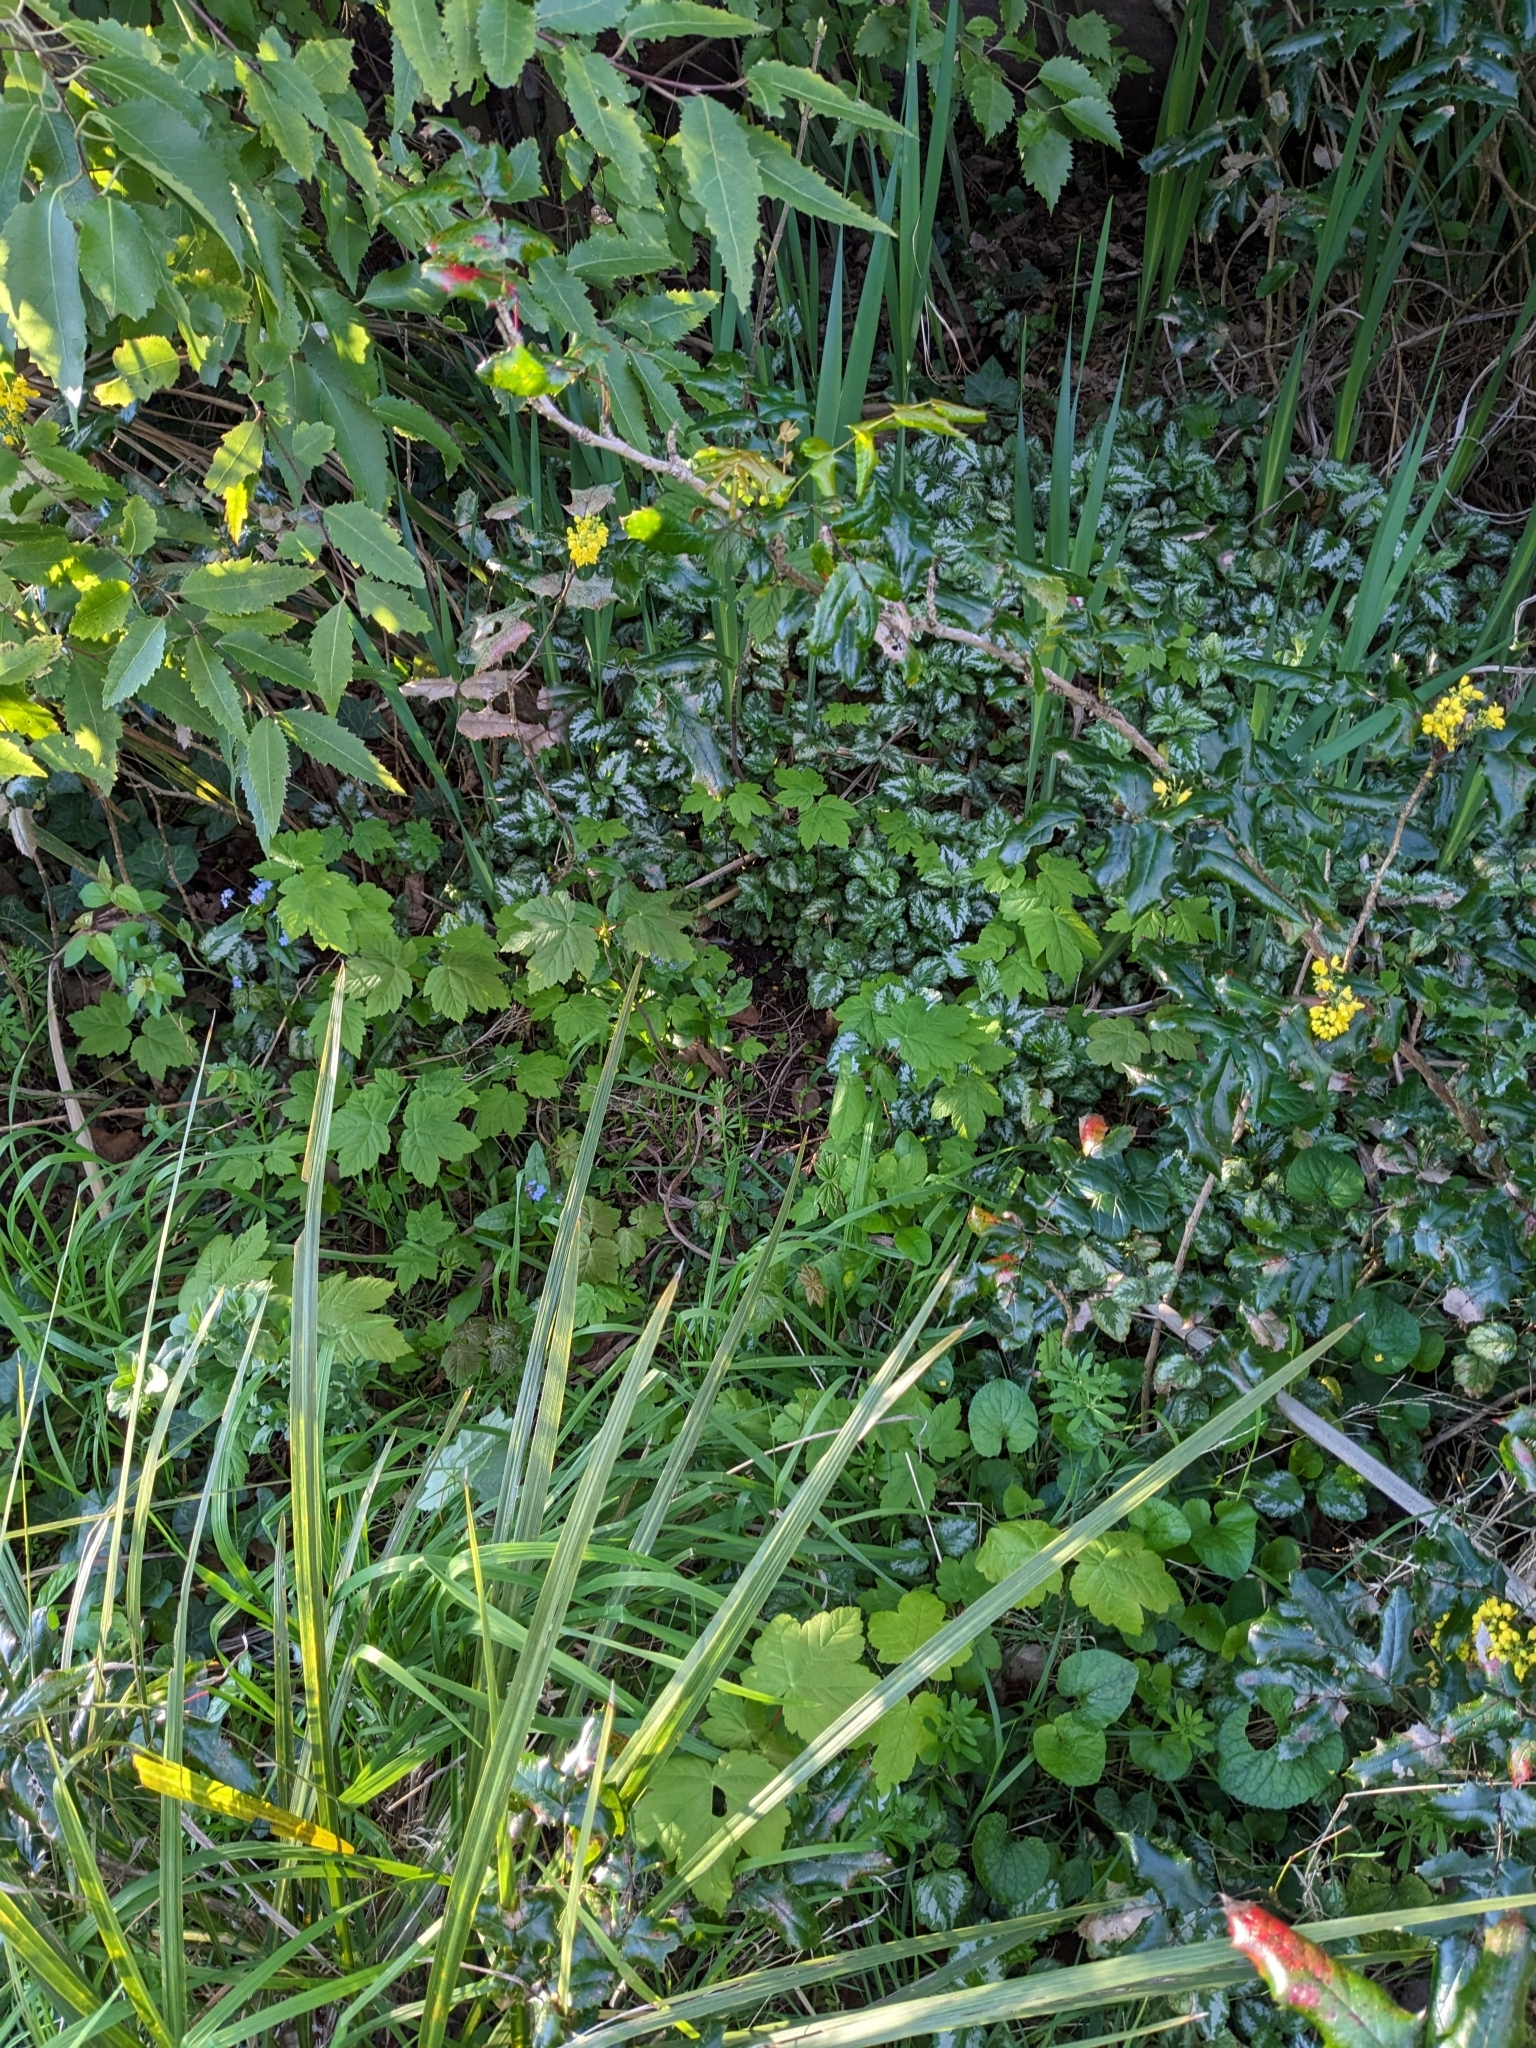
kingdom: Plantae
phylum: Tracheophyta
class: Magnoliopsida
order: Sapindales
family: Sapindaceae
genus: Acer
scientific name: Acer pseudoplatanus
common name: Sycamore
